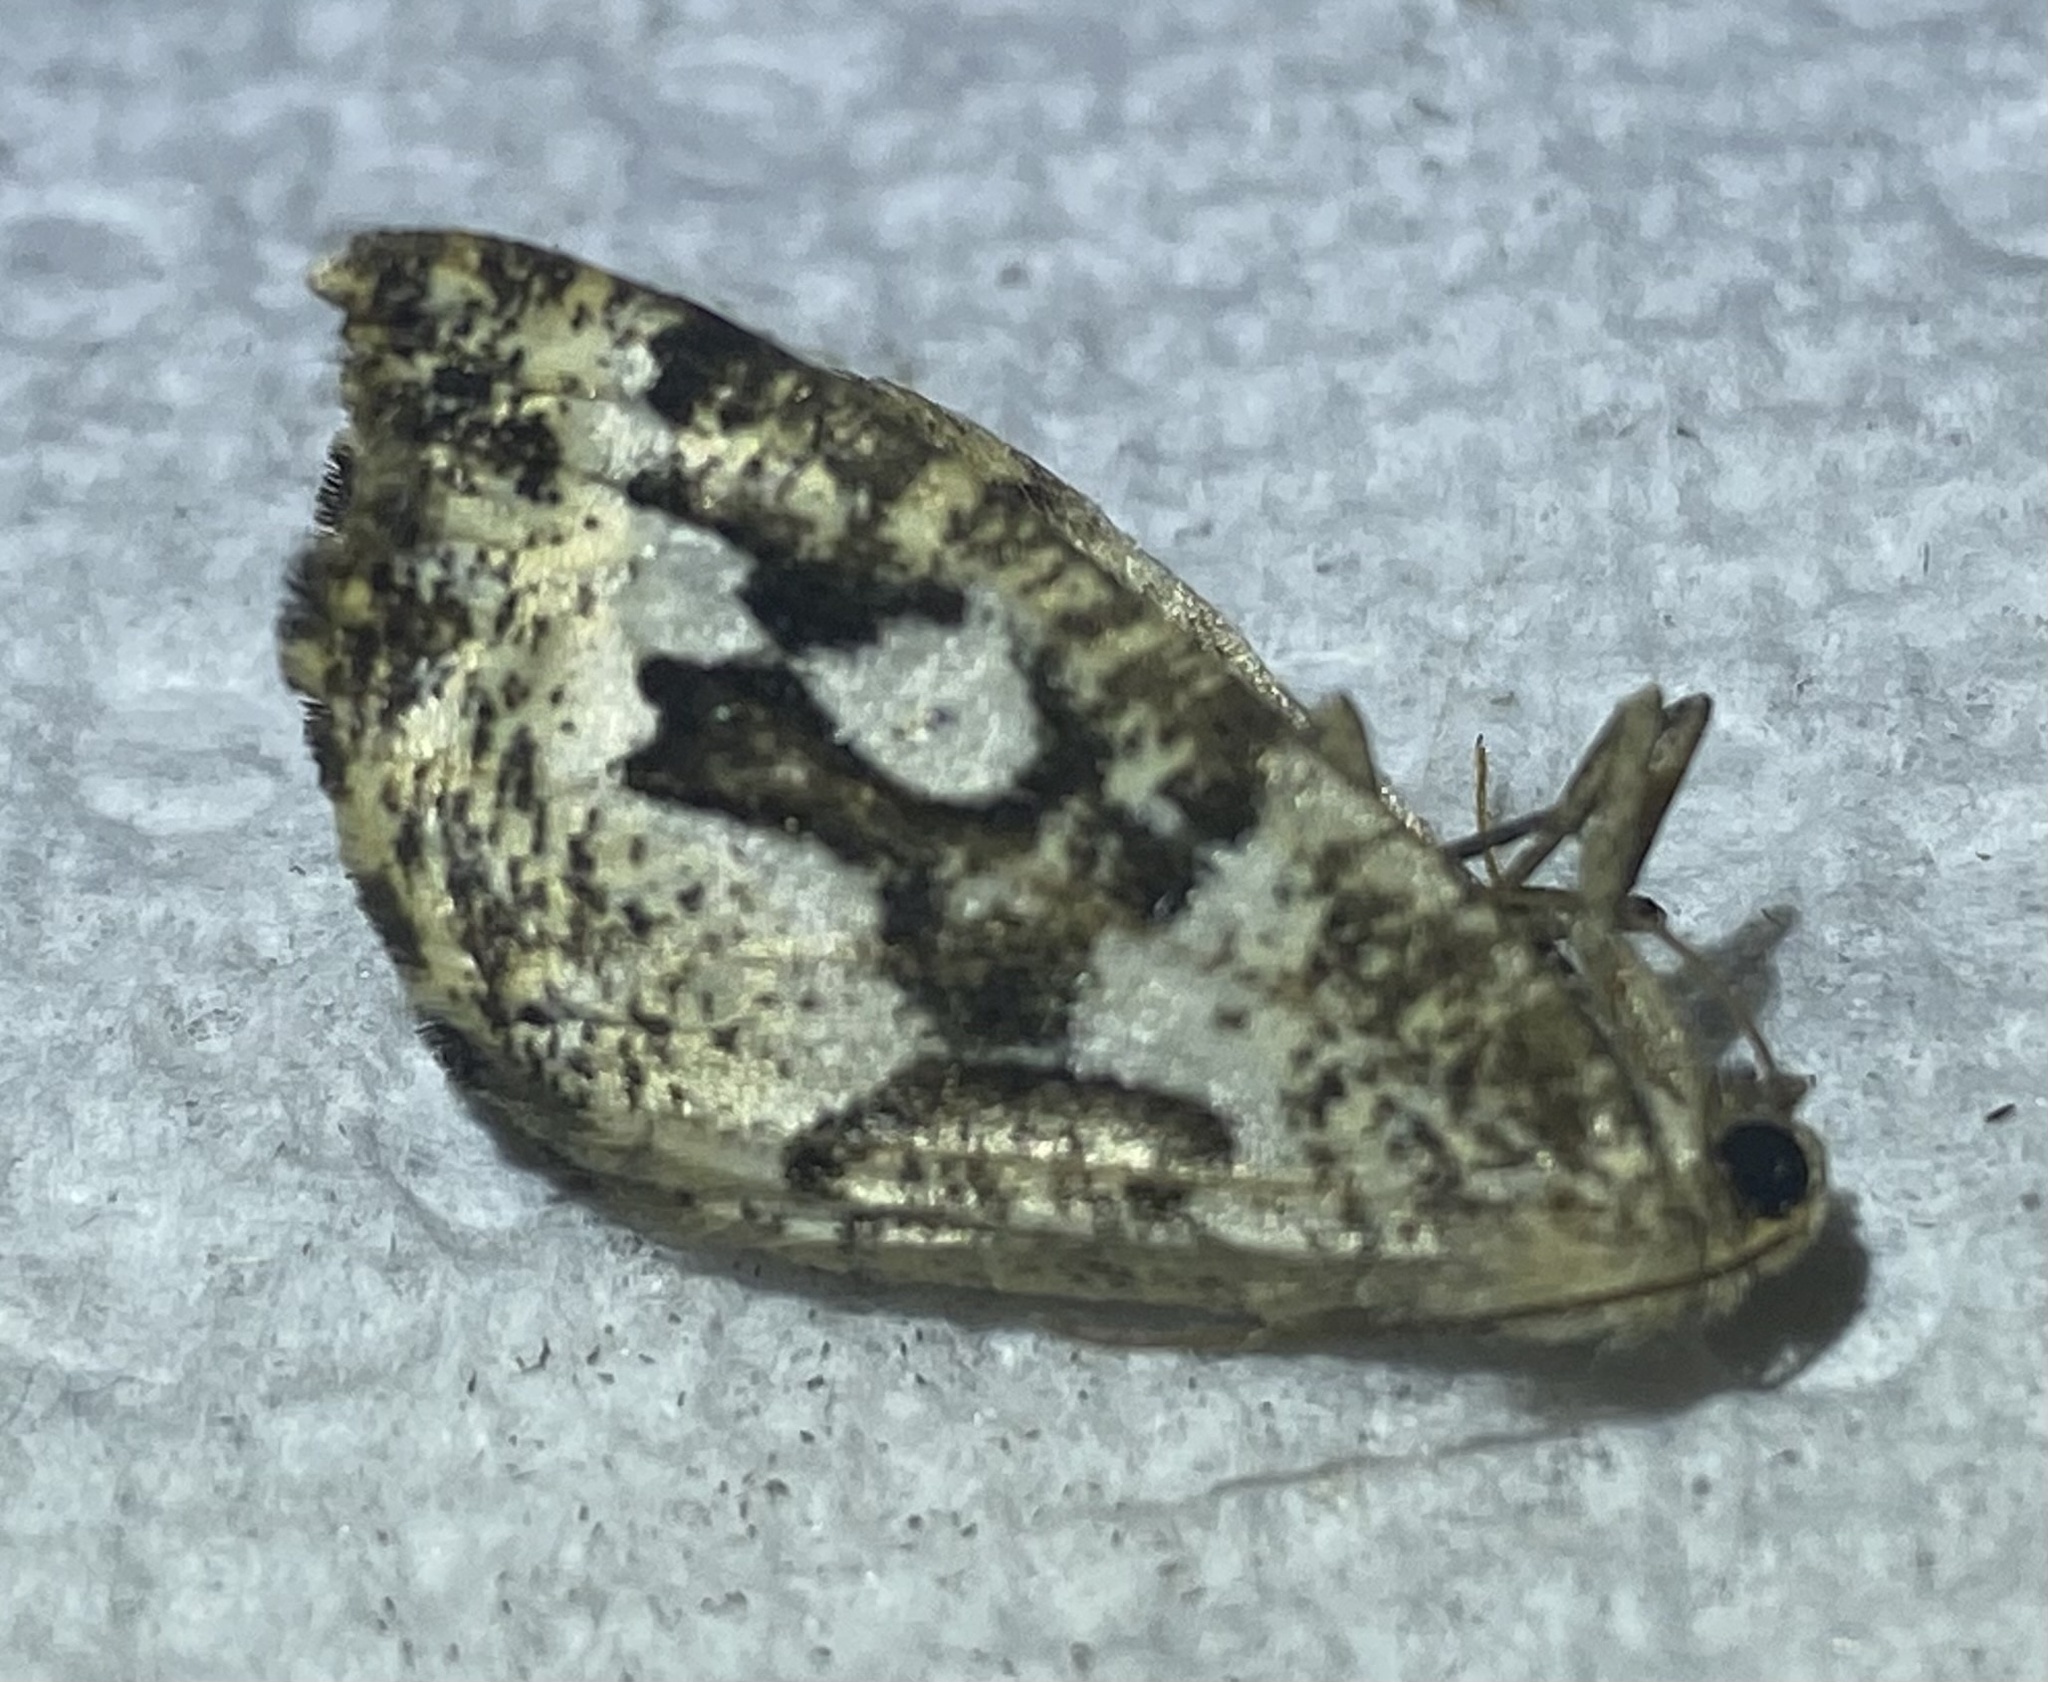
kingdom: Animalia
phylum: Arthropoda
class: Insecta
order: Lepidoptera
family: Geometridae
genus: Caripeta
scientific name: Caripeta divisata
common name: Gray spruce looper
